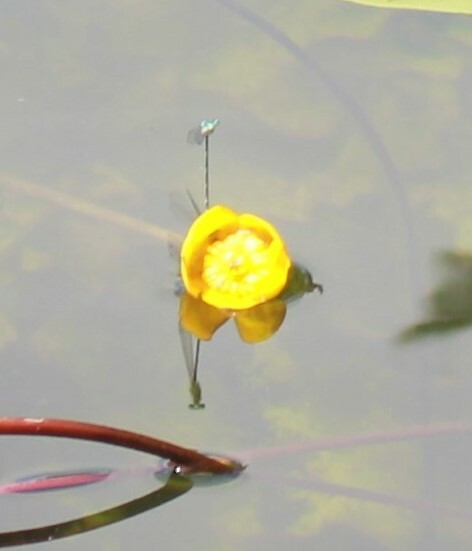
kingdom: Animalia
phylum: Arthropoda
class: Insecta
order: Odonata
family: Platycnemididae
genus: Platycnemis
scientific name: Platycnemis pennipes
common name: White-legged damselfly
